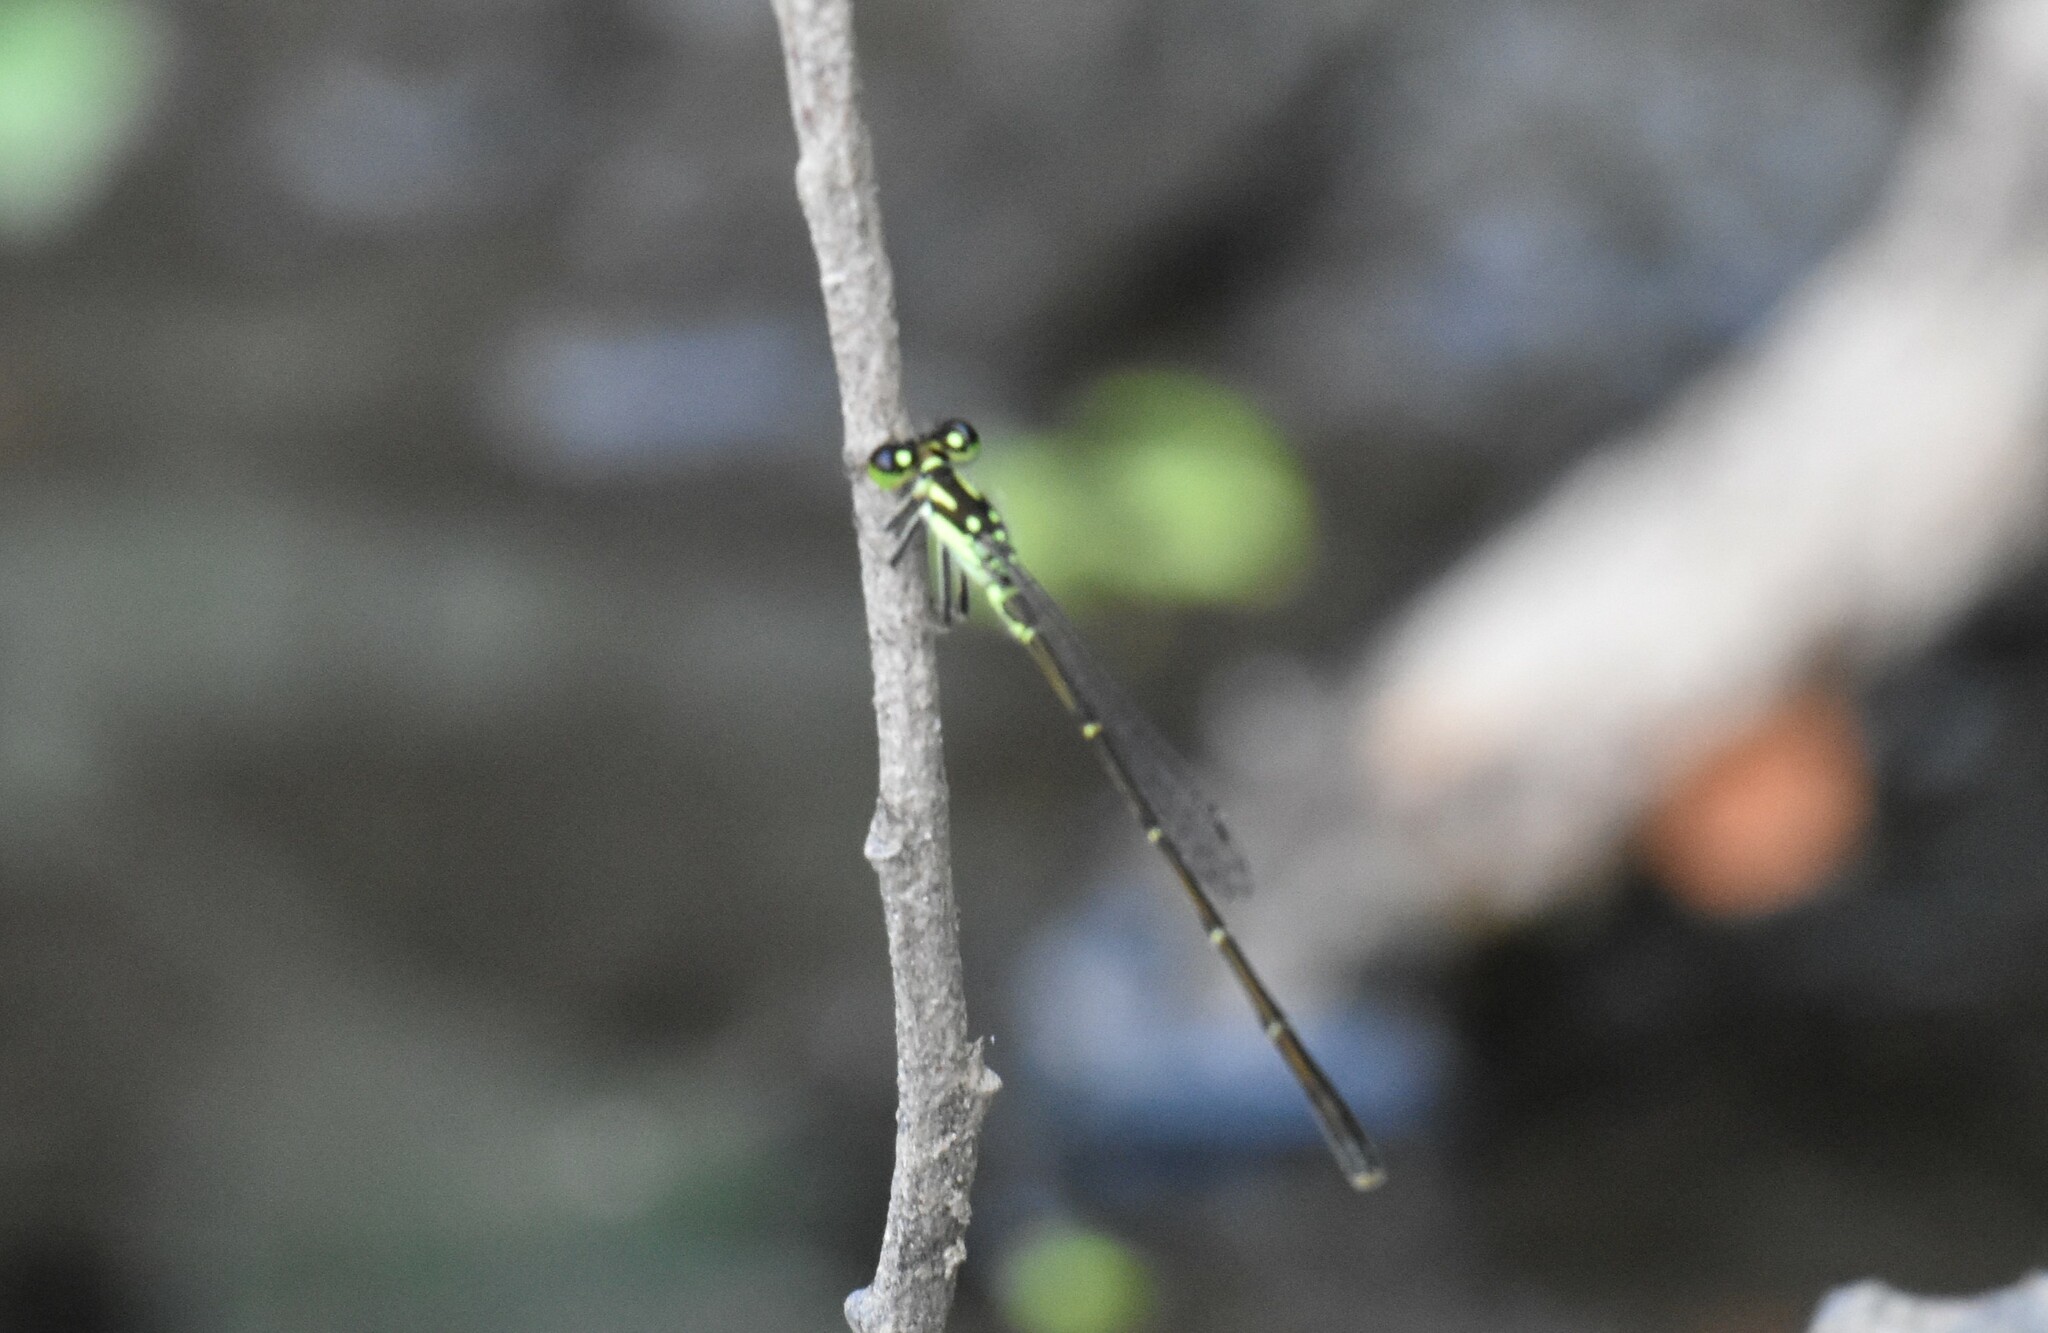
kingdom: Animalia
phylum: Arthropoda
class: Insecta
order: Odonata
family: Coenagrionidae
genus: Ischnura
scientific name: Ischnura posita
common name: Fragile forktail
